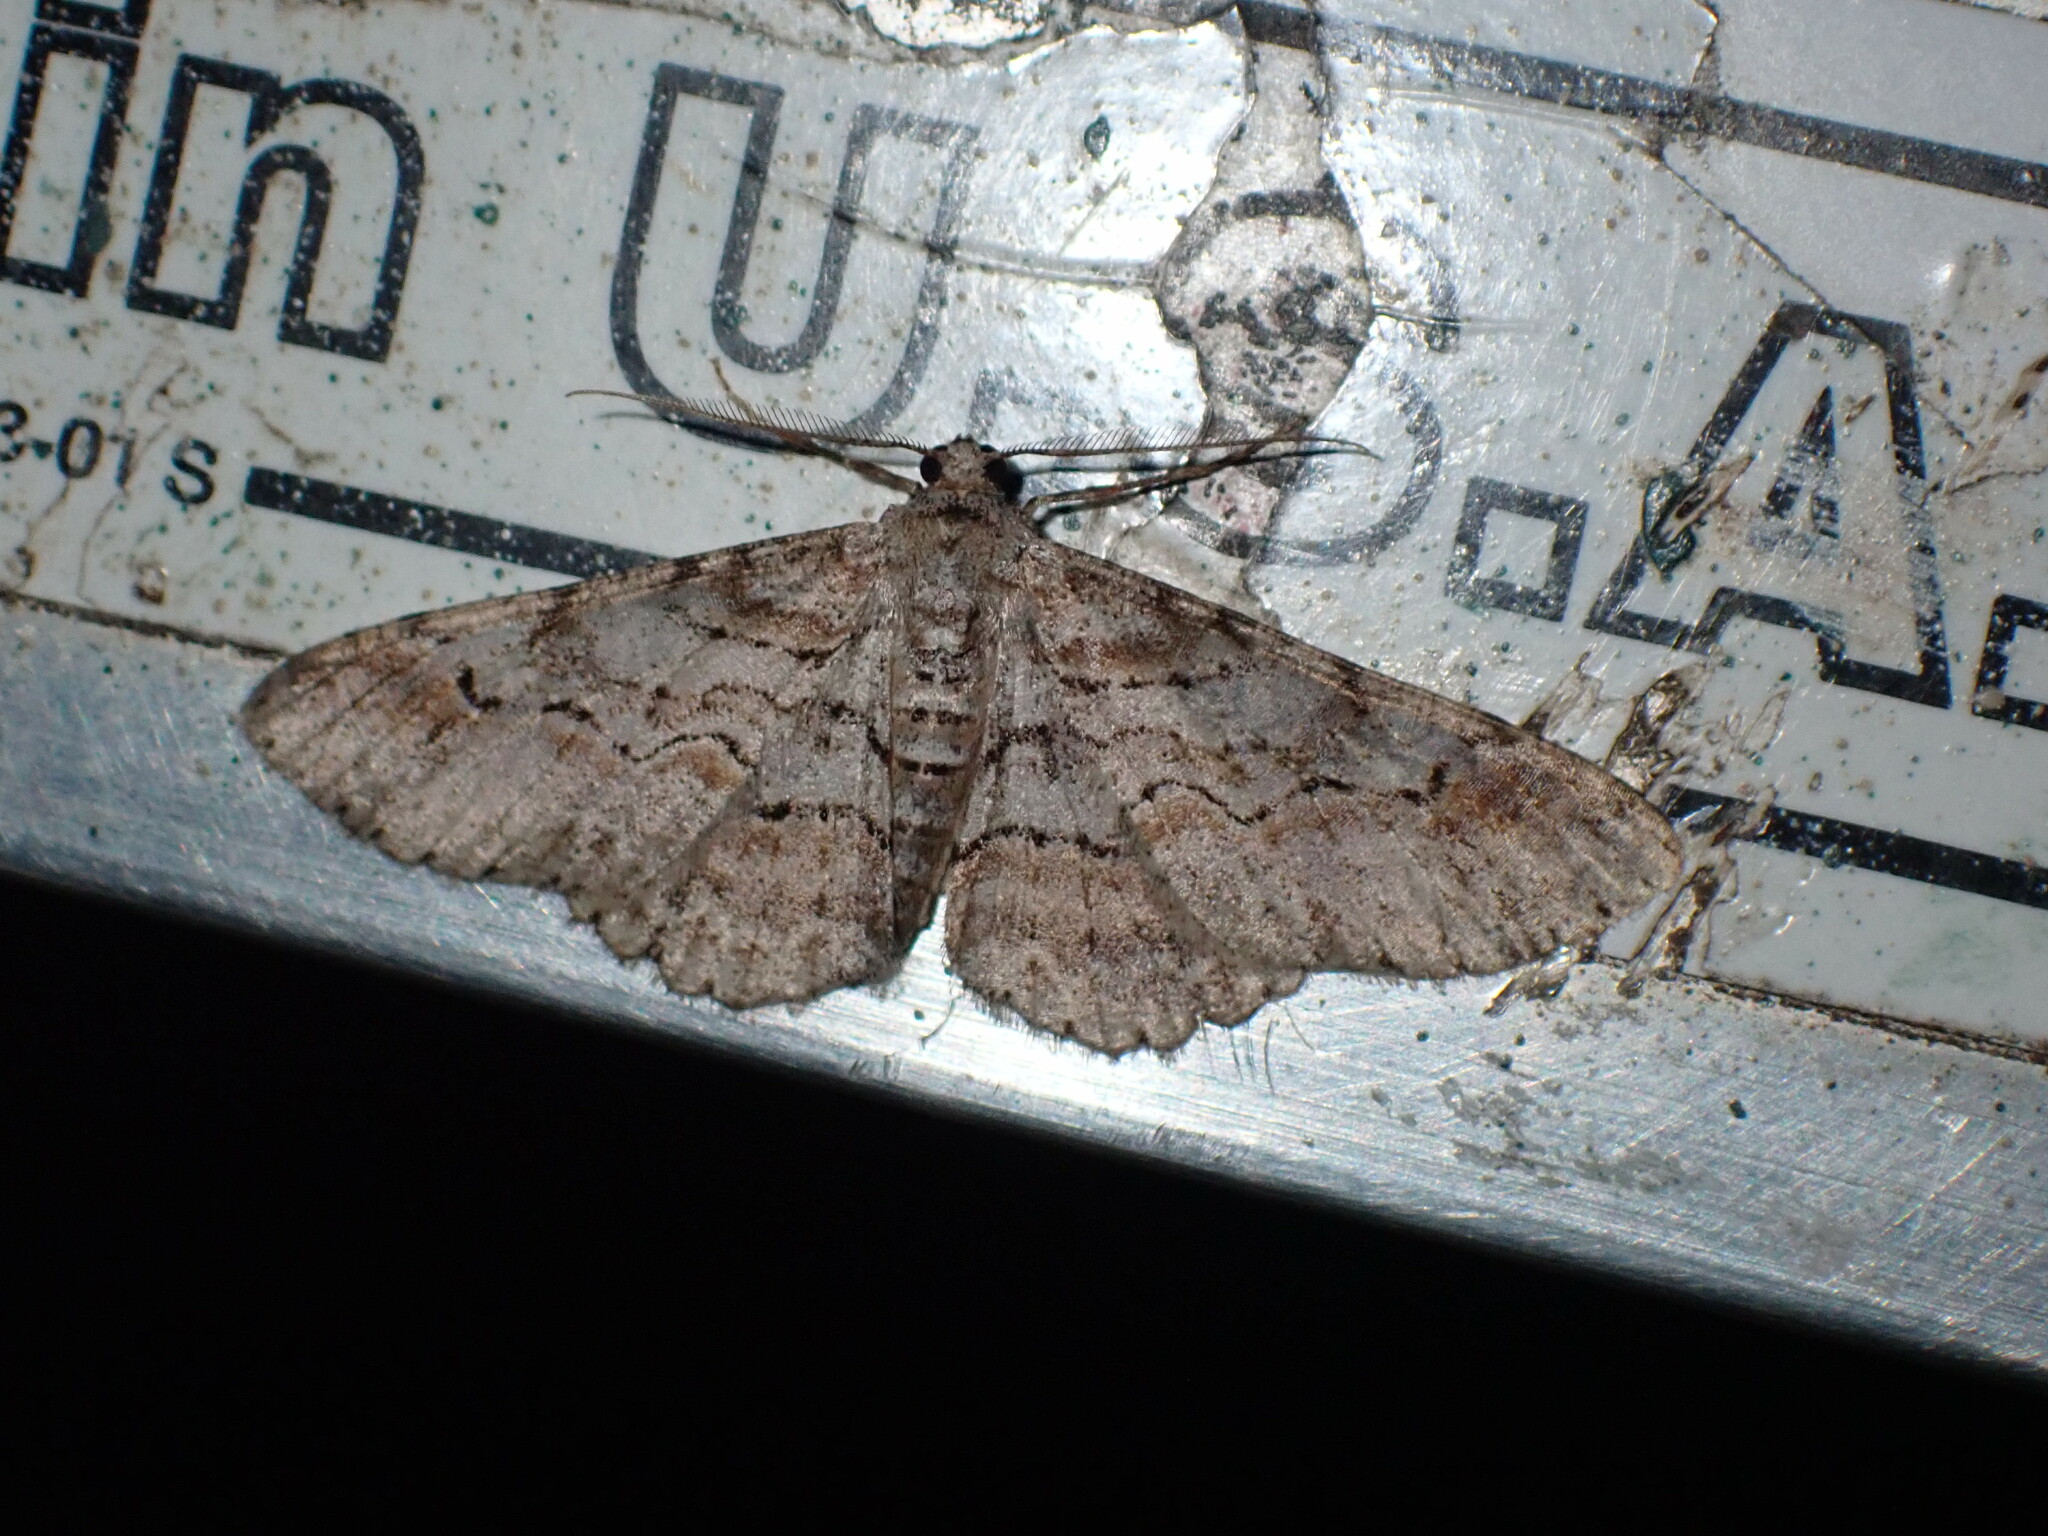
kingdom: Animalia
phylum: Arthropoda
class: Insecta
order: Lepidoptera
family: Geometridae
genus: Iridopsis
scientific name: Iridopsis emasculatum
